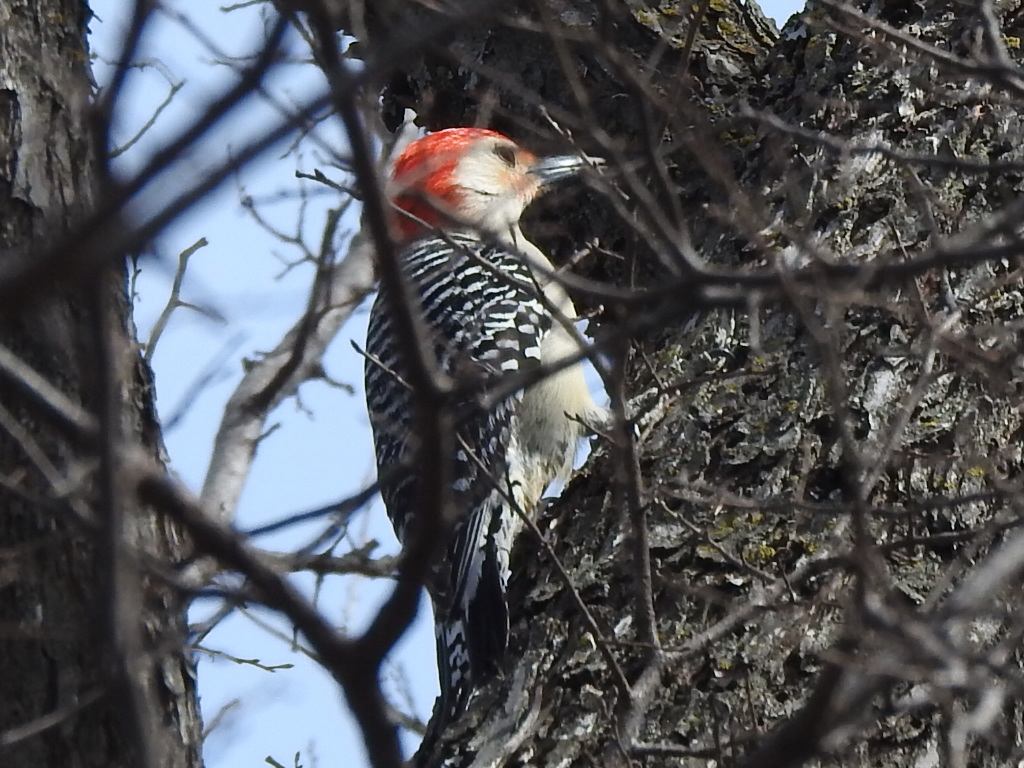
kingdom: Animalia
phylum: Chordata
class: Aves
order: Piciformes
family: Picidae
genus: Melanerpes
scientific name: Melanerpes carolinus
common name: Red-bellied woodpecker
